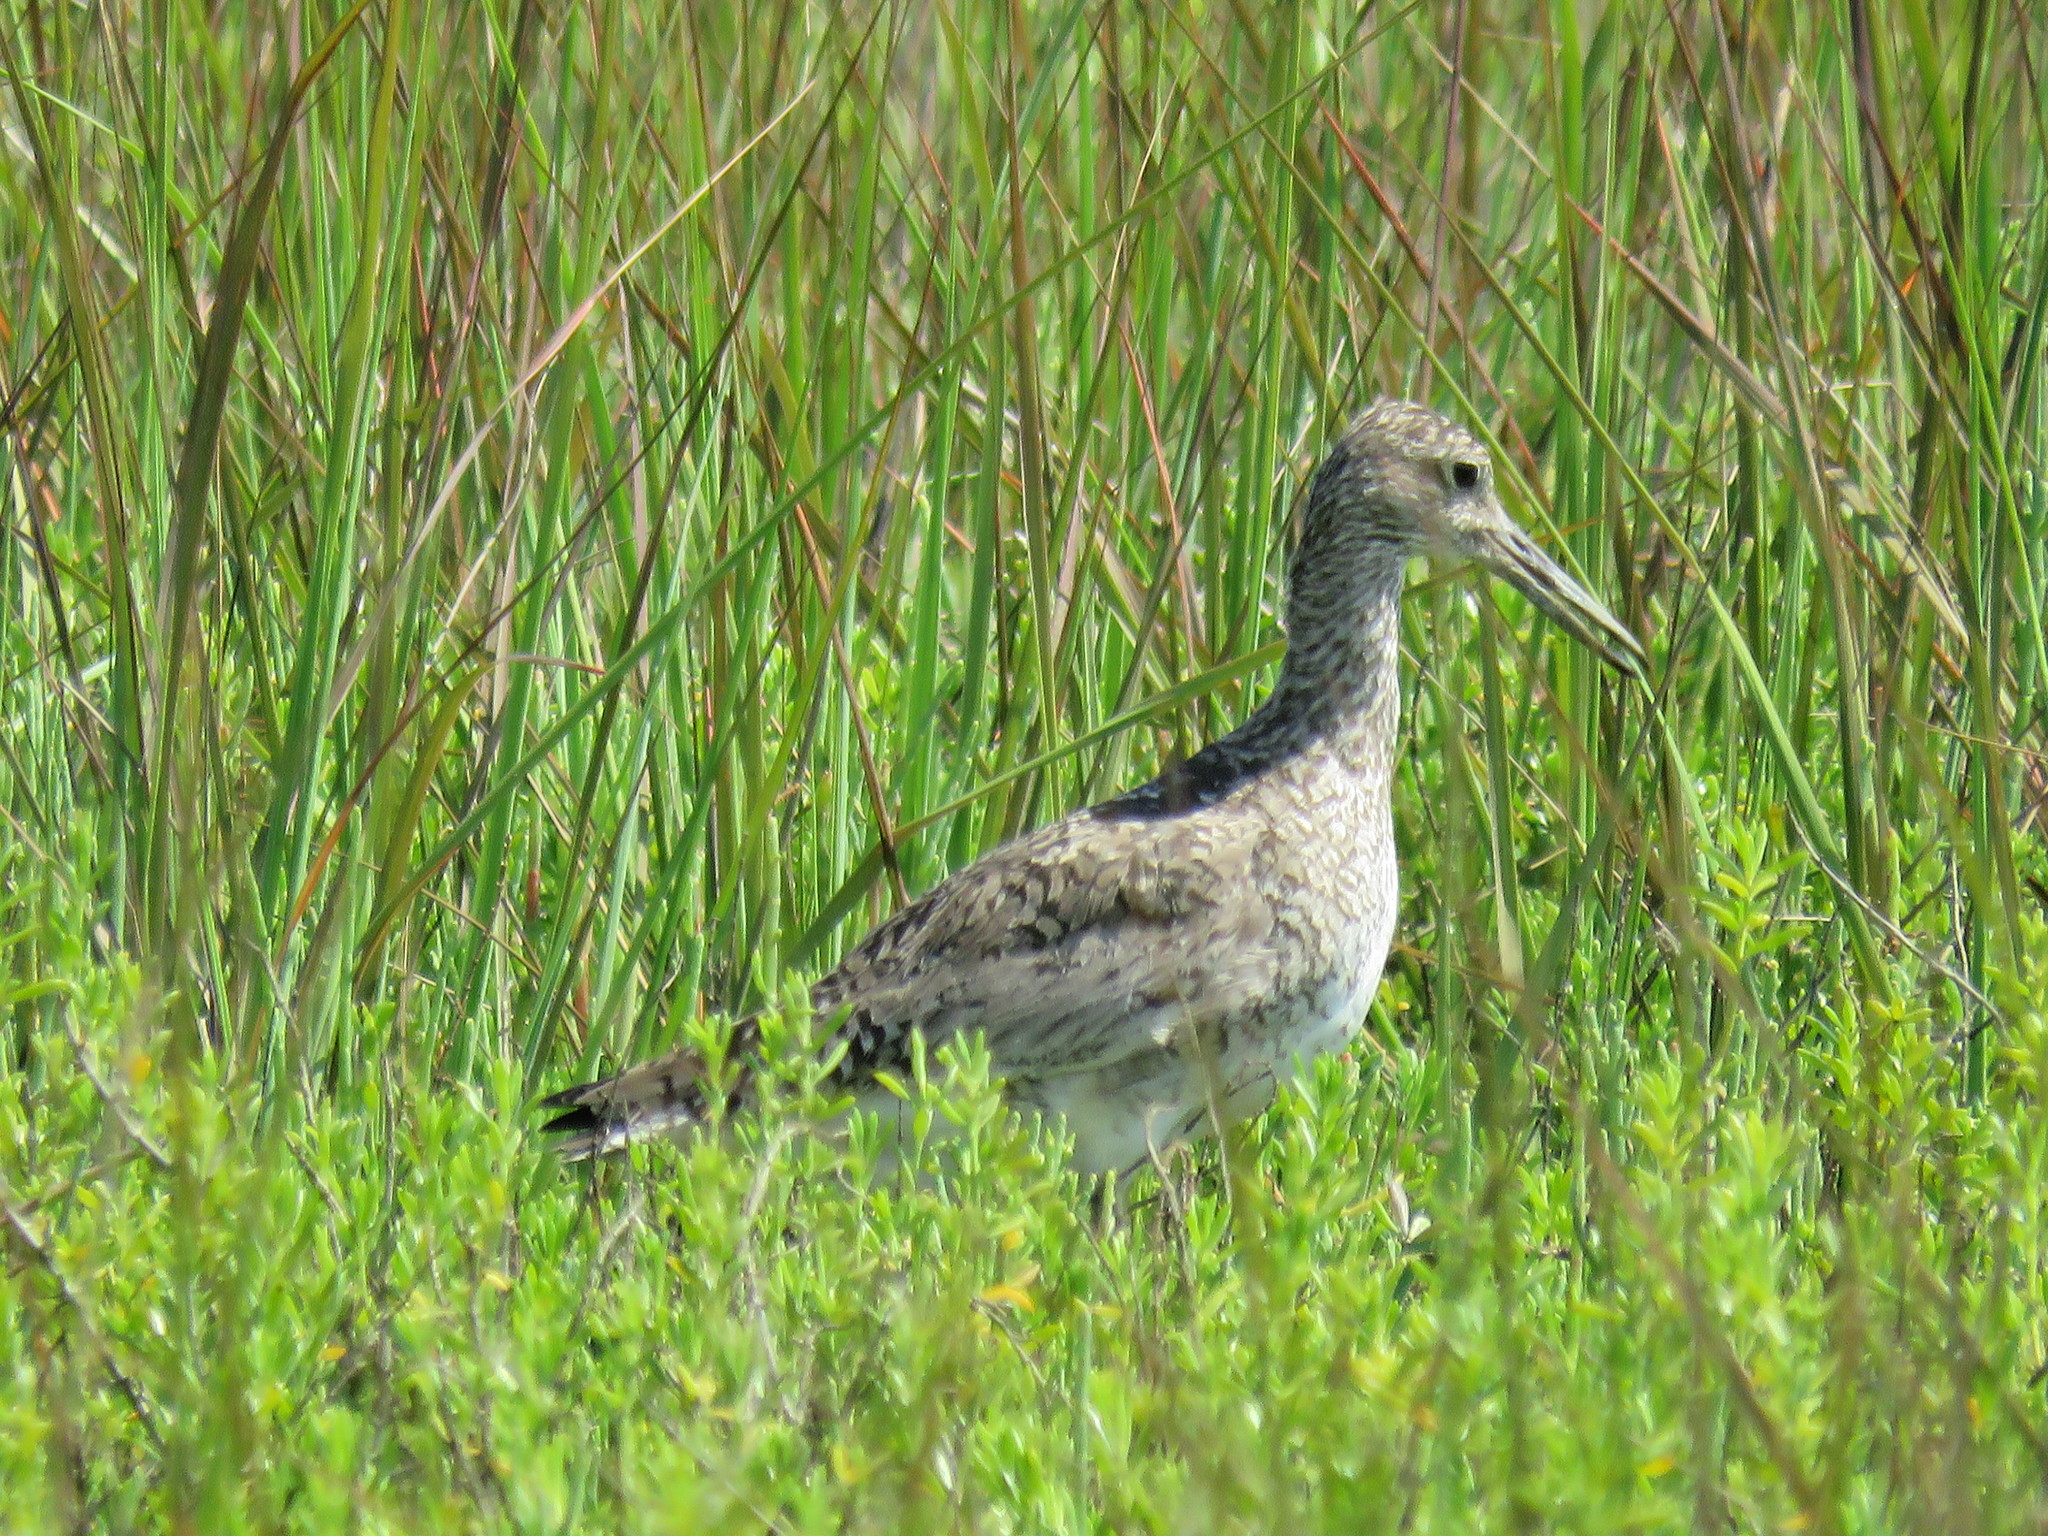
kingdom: Animalia
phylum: Chordata
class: Aves
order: Charadriiformes
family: Scolopacidae
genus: Tringa
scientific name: Tringa semipalmata
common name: Willet
